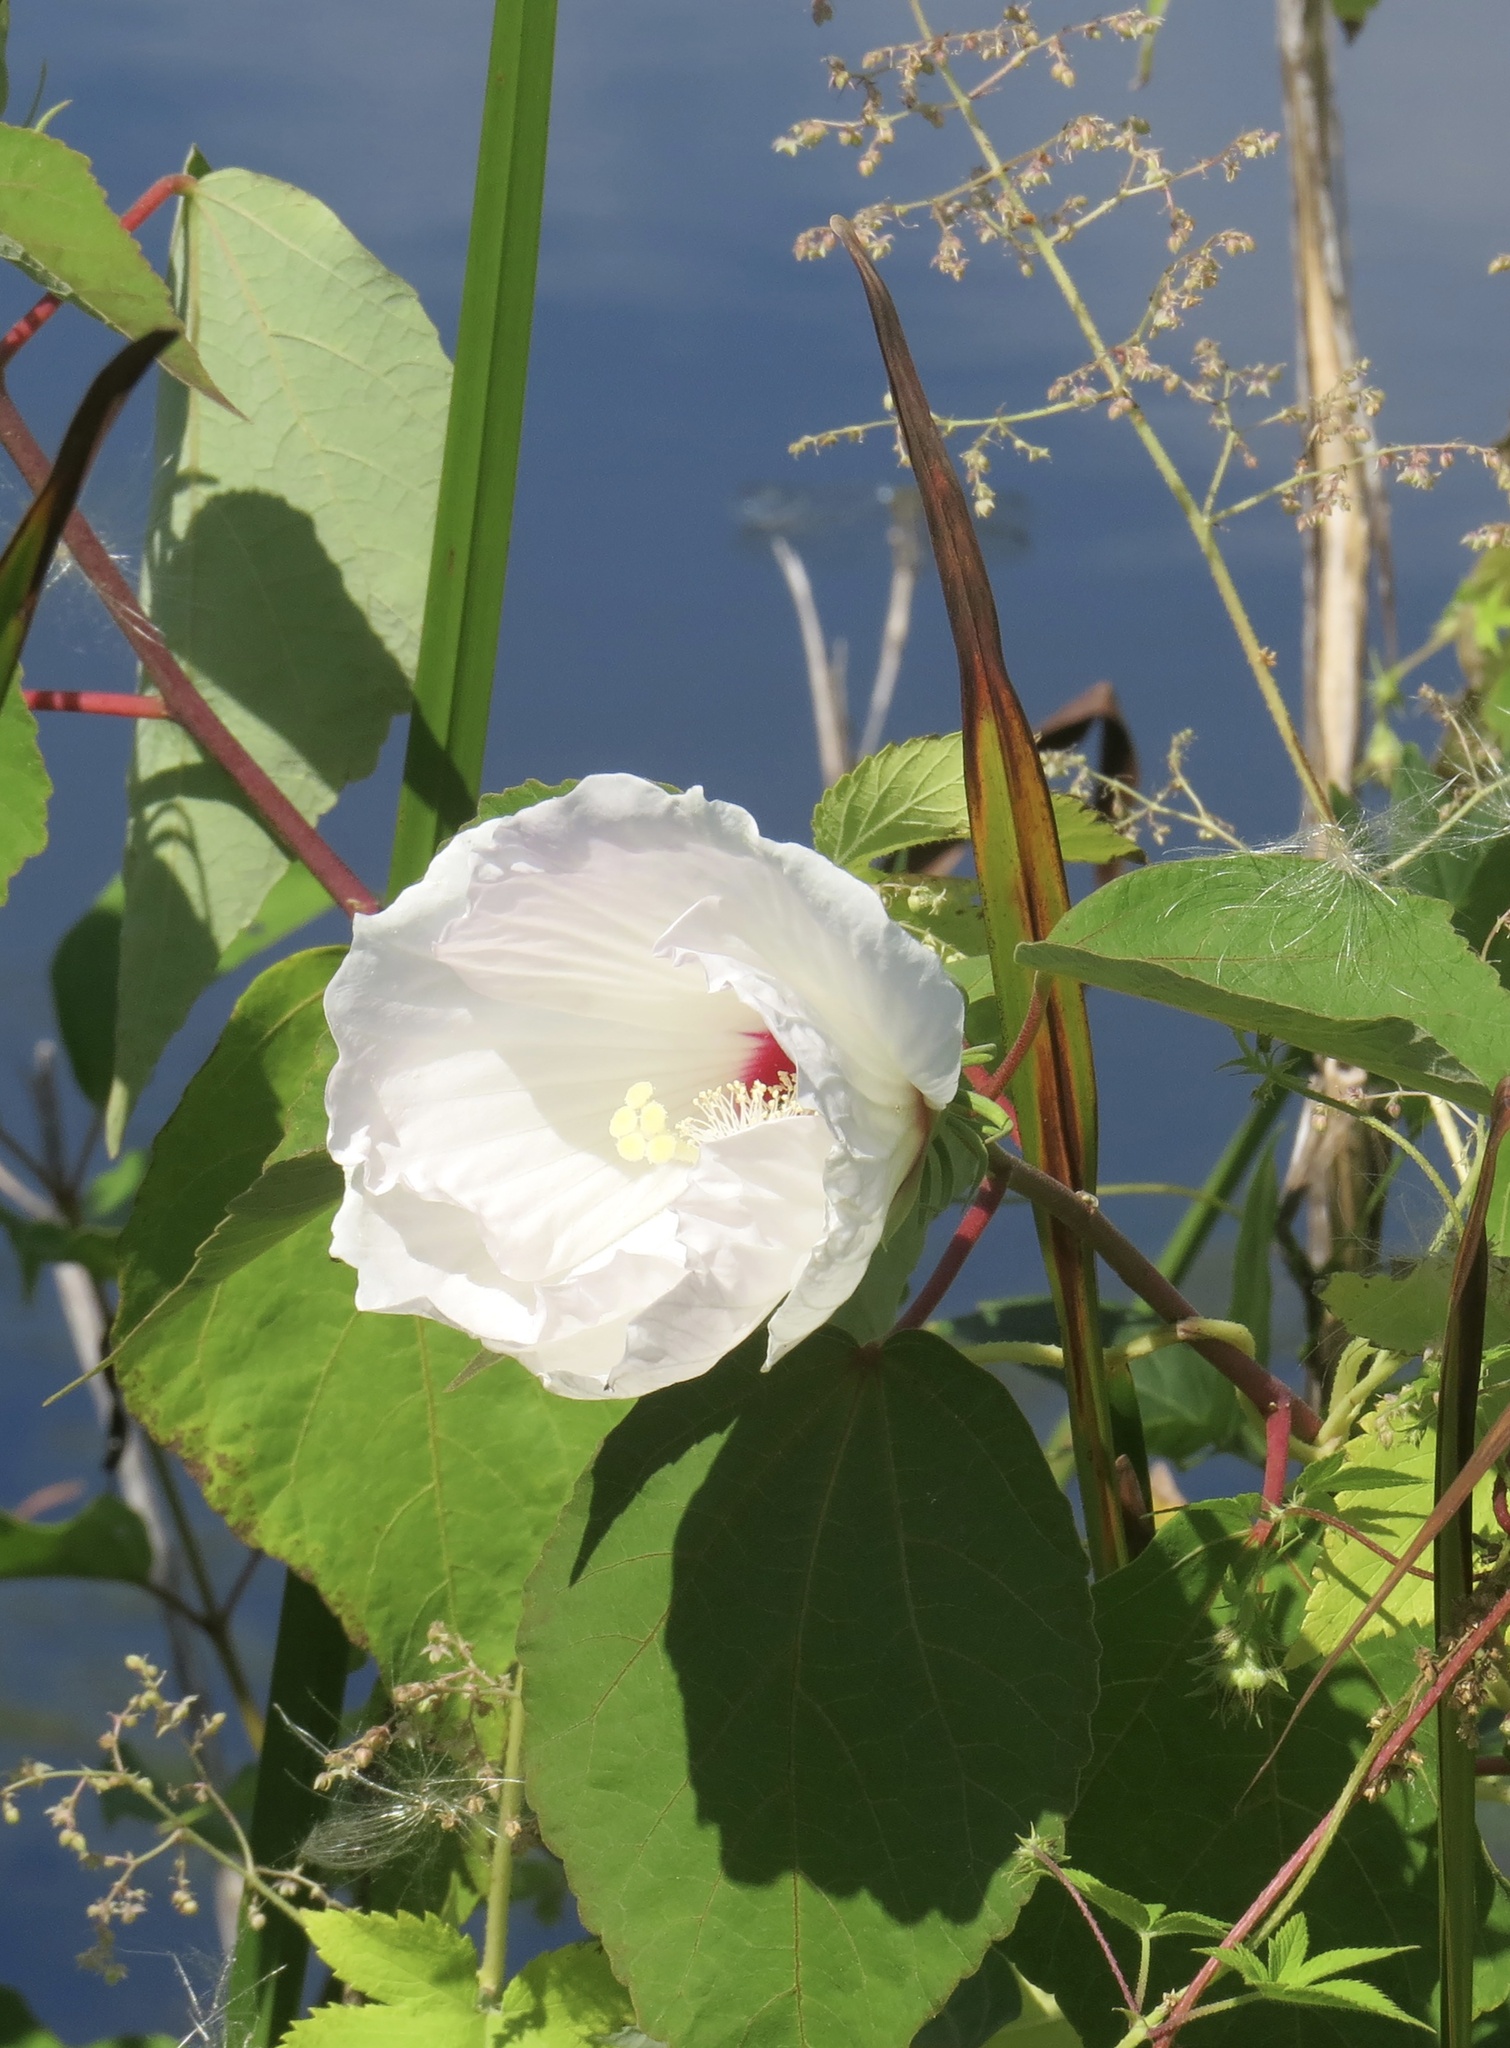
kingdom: Plantae
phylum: Tracheophyta
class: Magnoliopsida
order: Malvales
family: Malvaceae
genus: Hibiscus
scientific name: Hibiscus moscheutos
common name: Common rose-mallow
